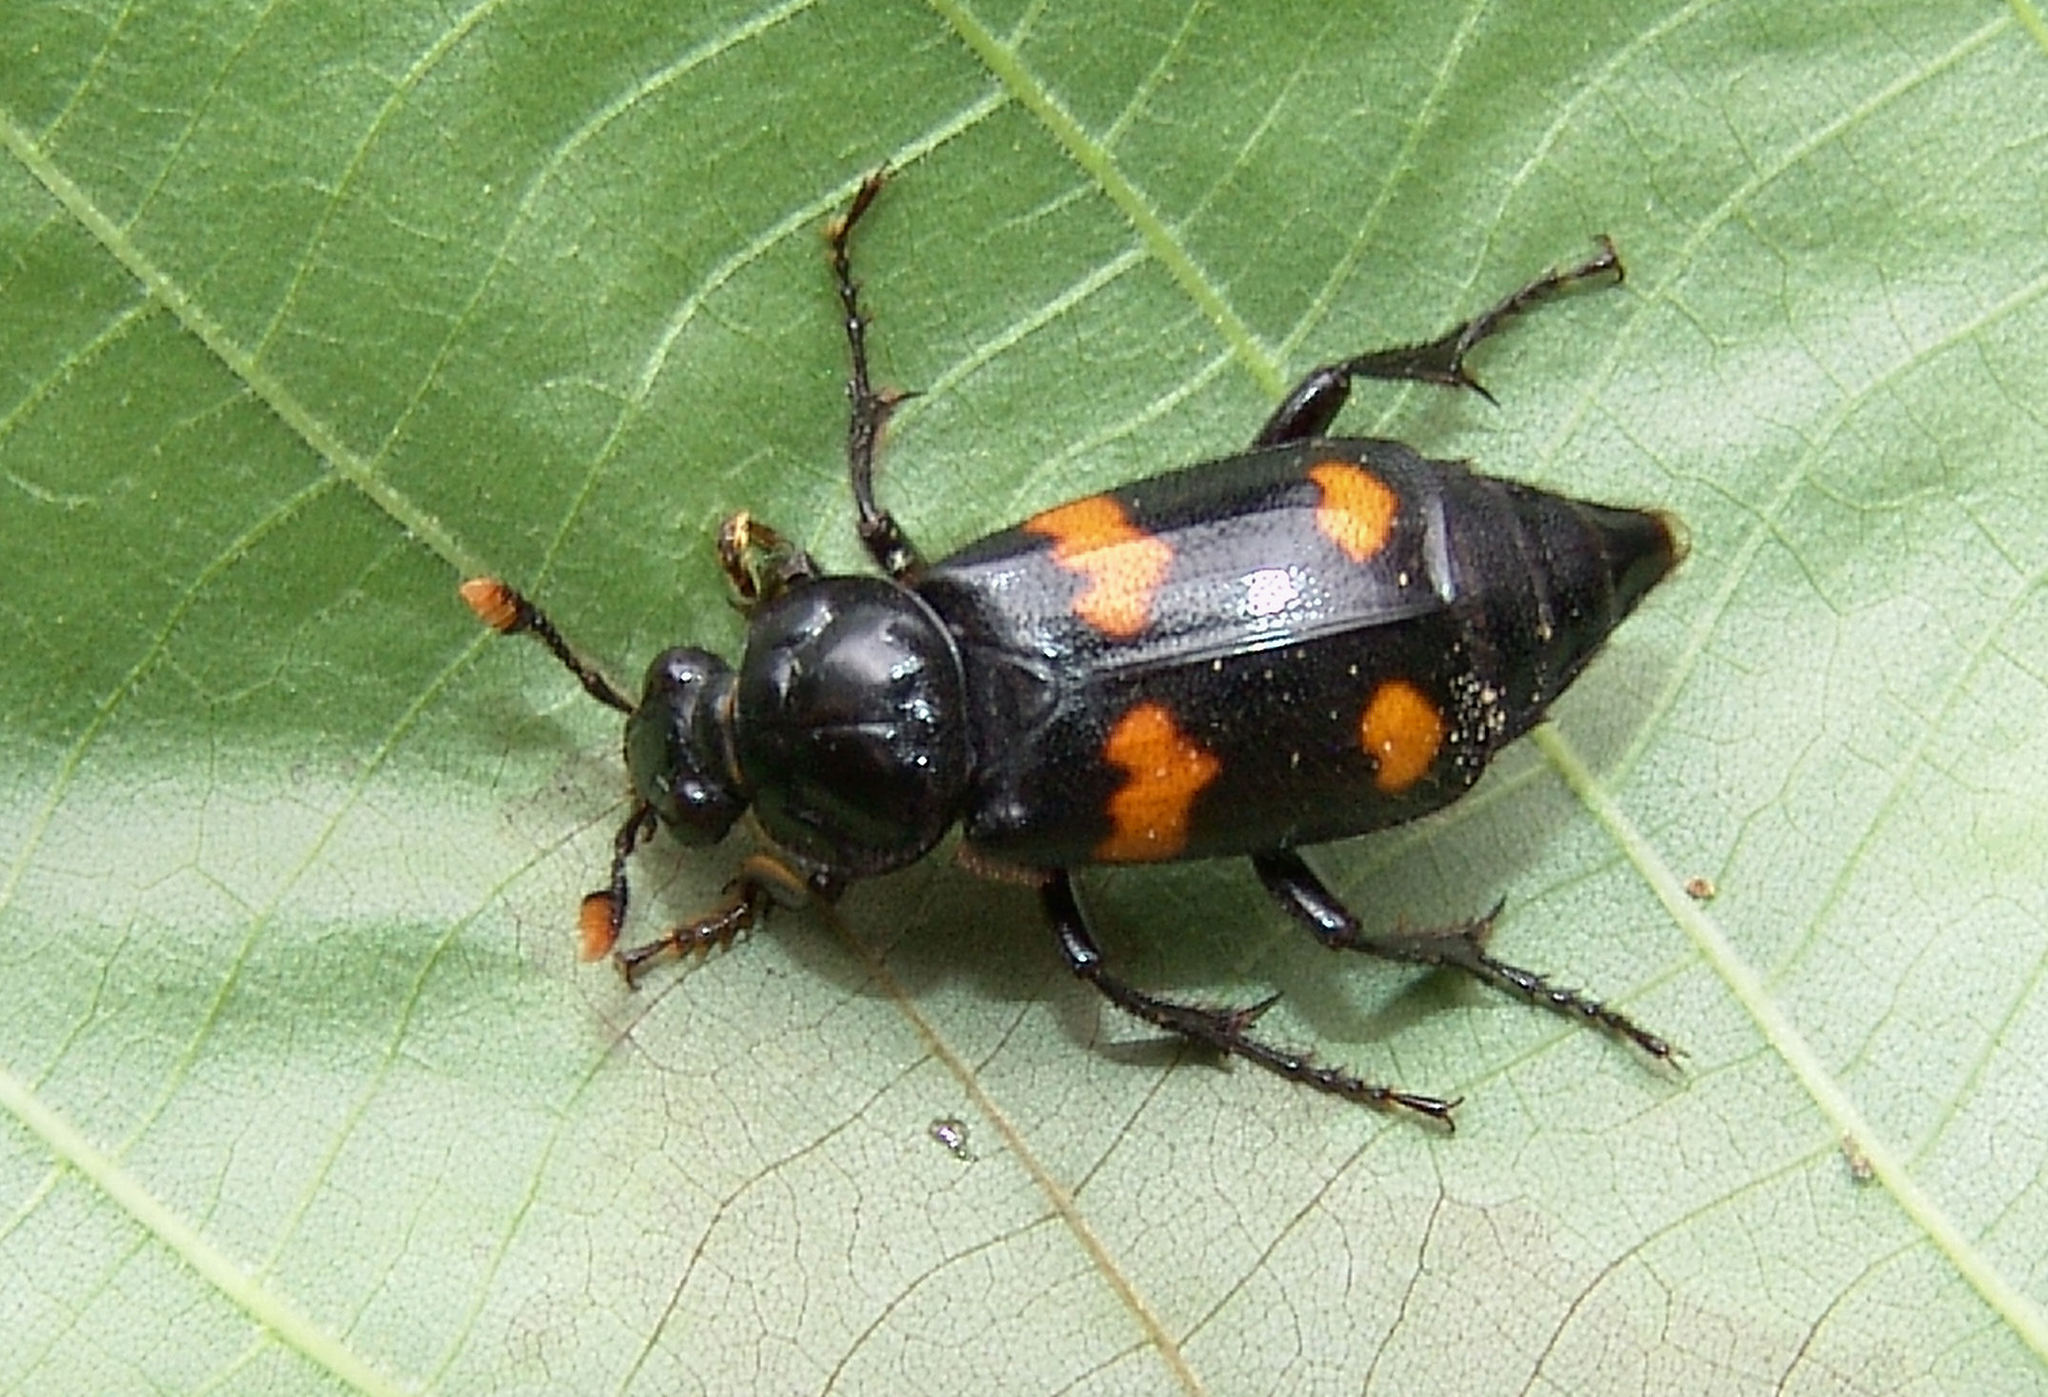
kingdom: Animalia
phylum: Arthropoda
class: Insecta
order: Coleoptera
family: Staphylinidae
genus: Nicrophorus
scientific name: Nicrophorus orbicollis
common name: Roundneck sexton beetle
